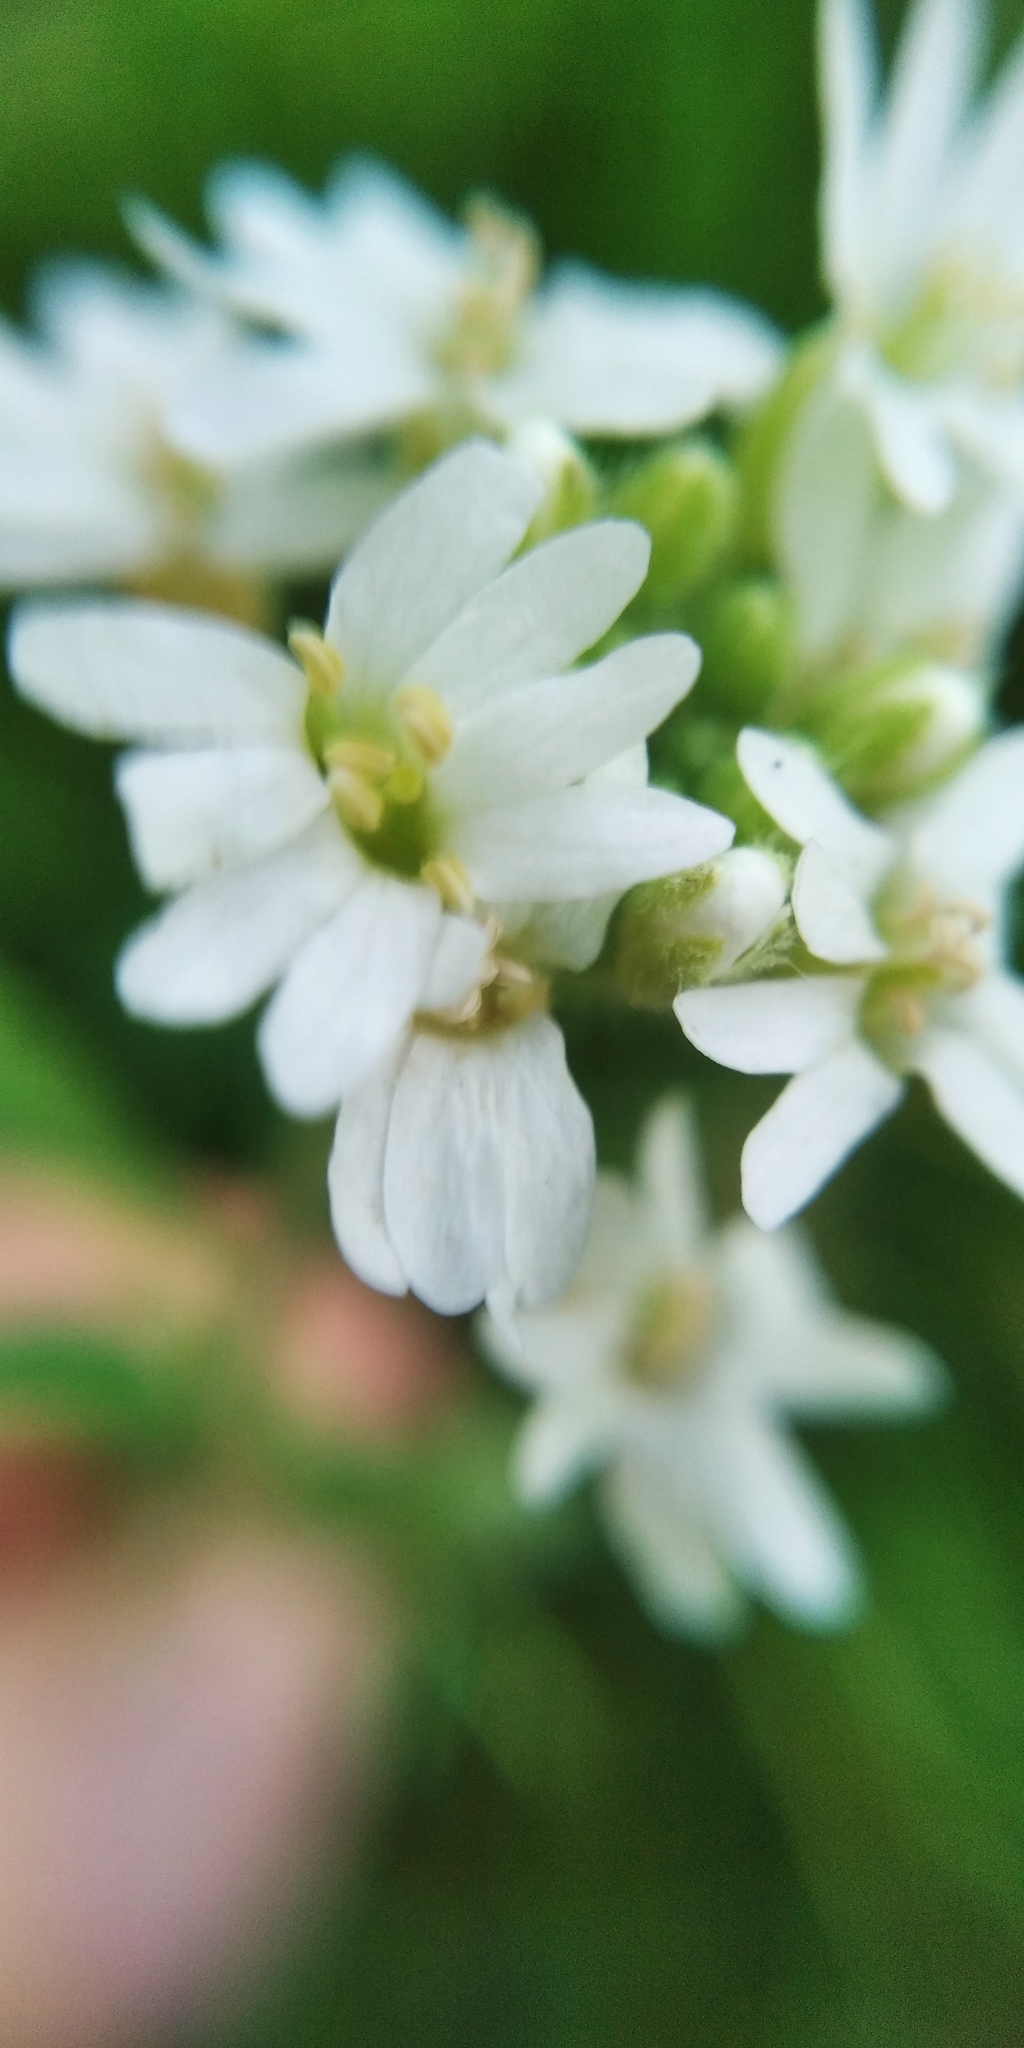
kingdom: Plantae
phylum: Tracheophyta
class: Magnoliopsida
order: Brassicales
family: Brassicaceae
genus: Berteroa
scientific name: Berteroa incana
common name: Hoary alison
